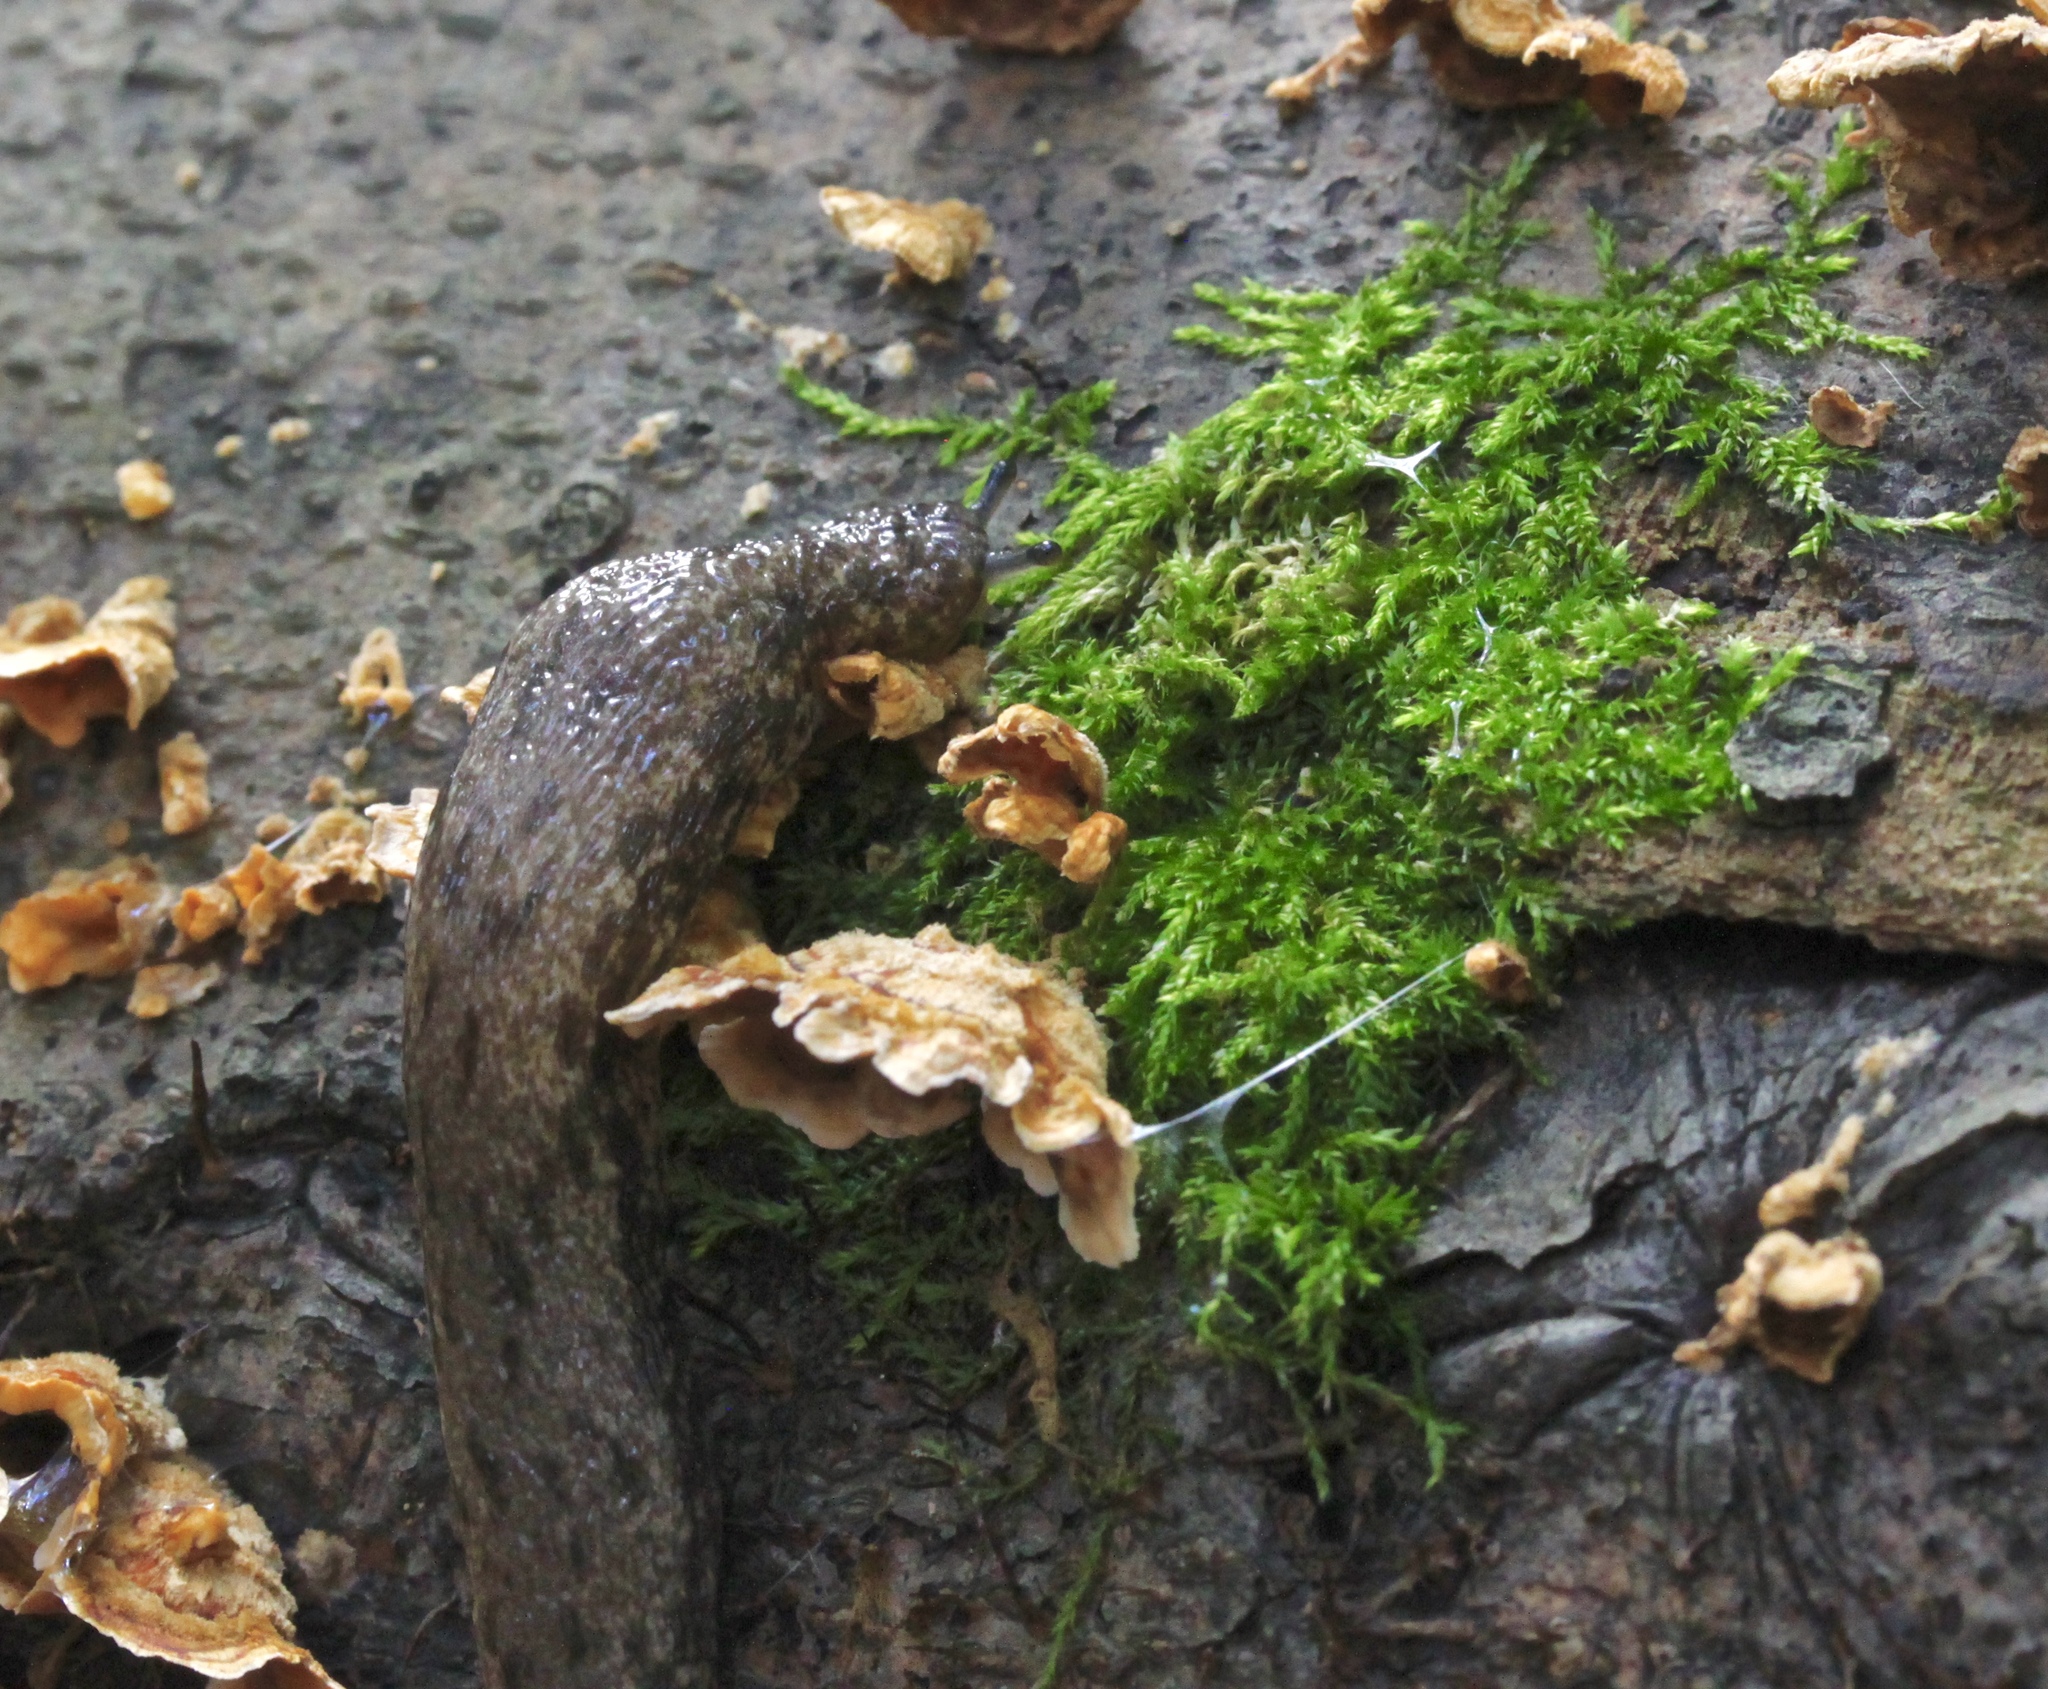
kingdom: Animalia
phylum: Mollusca
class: Gastropoda
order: Stylommatophora
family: Philomycidae
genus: Megapallifera
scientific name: Megapallifera mutabilis
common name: Changeable mantleslug
